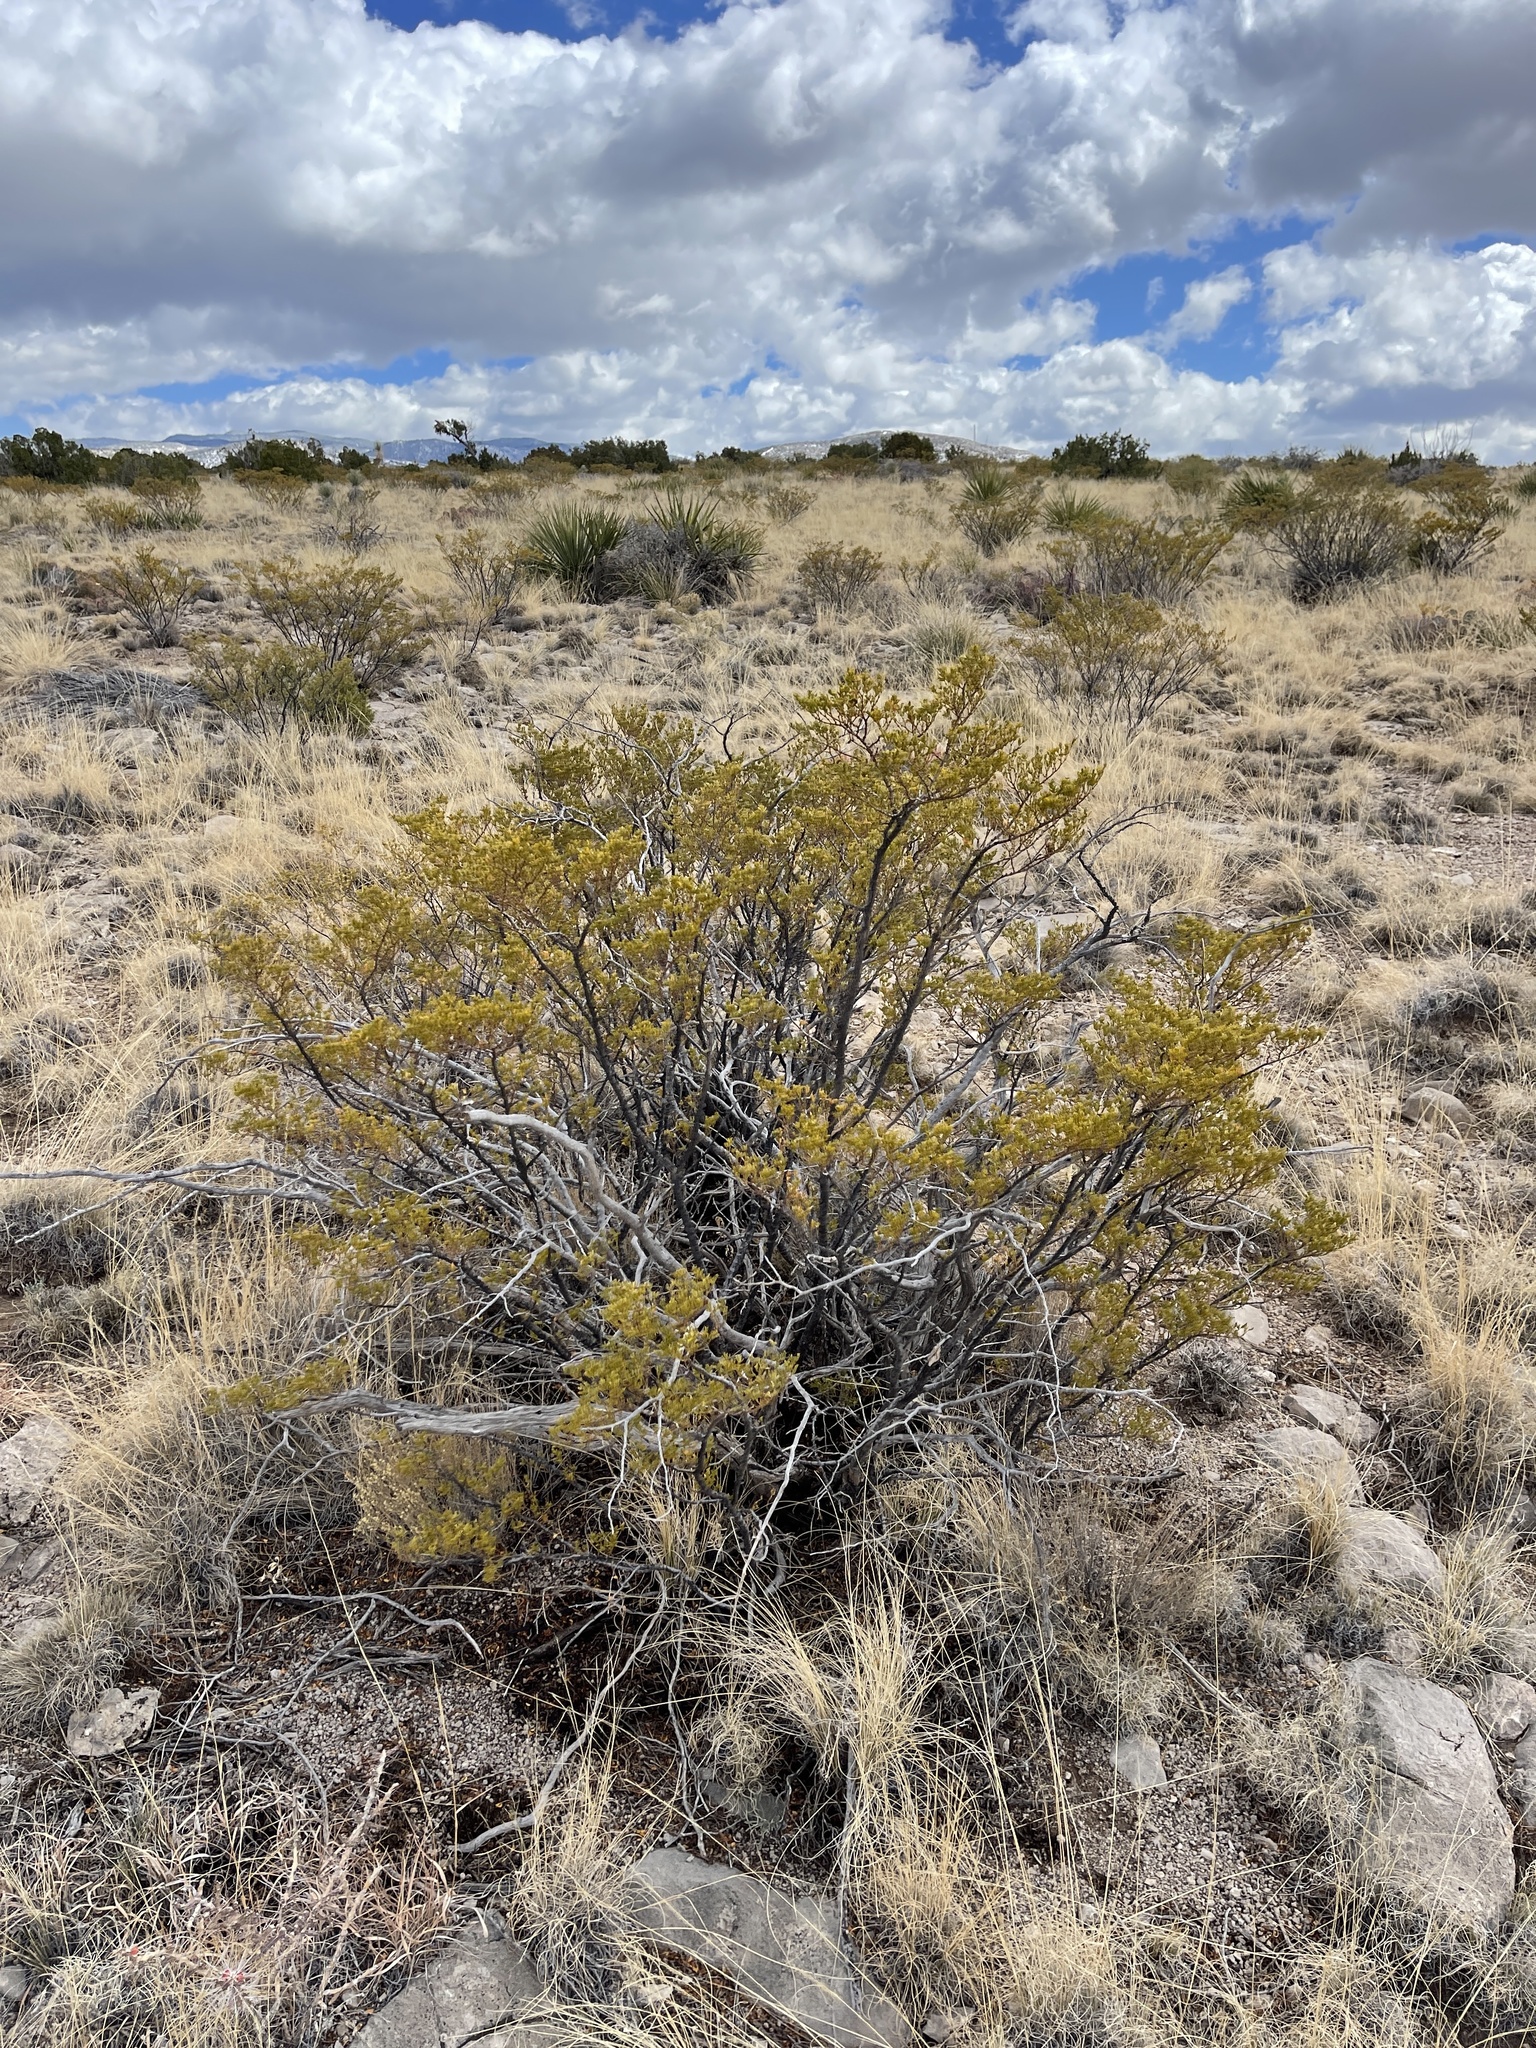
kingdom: Plantae
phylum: Tracheophyta
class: Magnoliopsida
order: Zygophyllales
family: Zygophyllaceae
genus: Larrea
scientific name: Larrea tridentata
